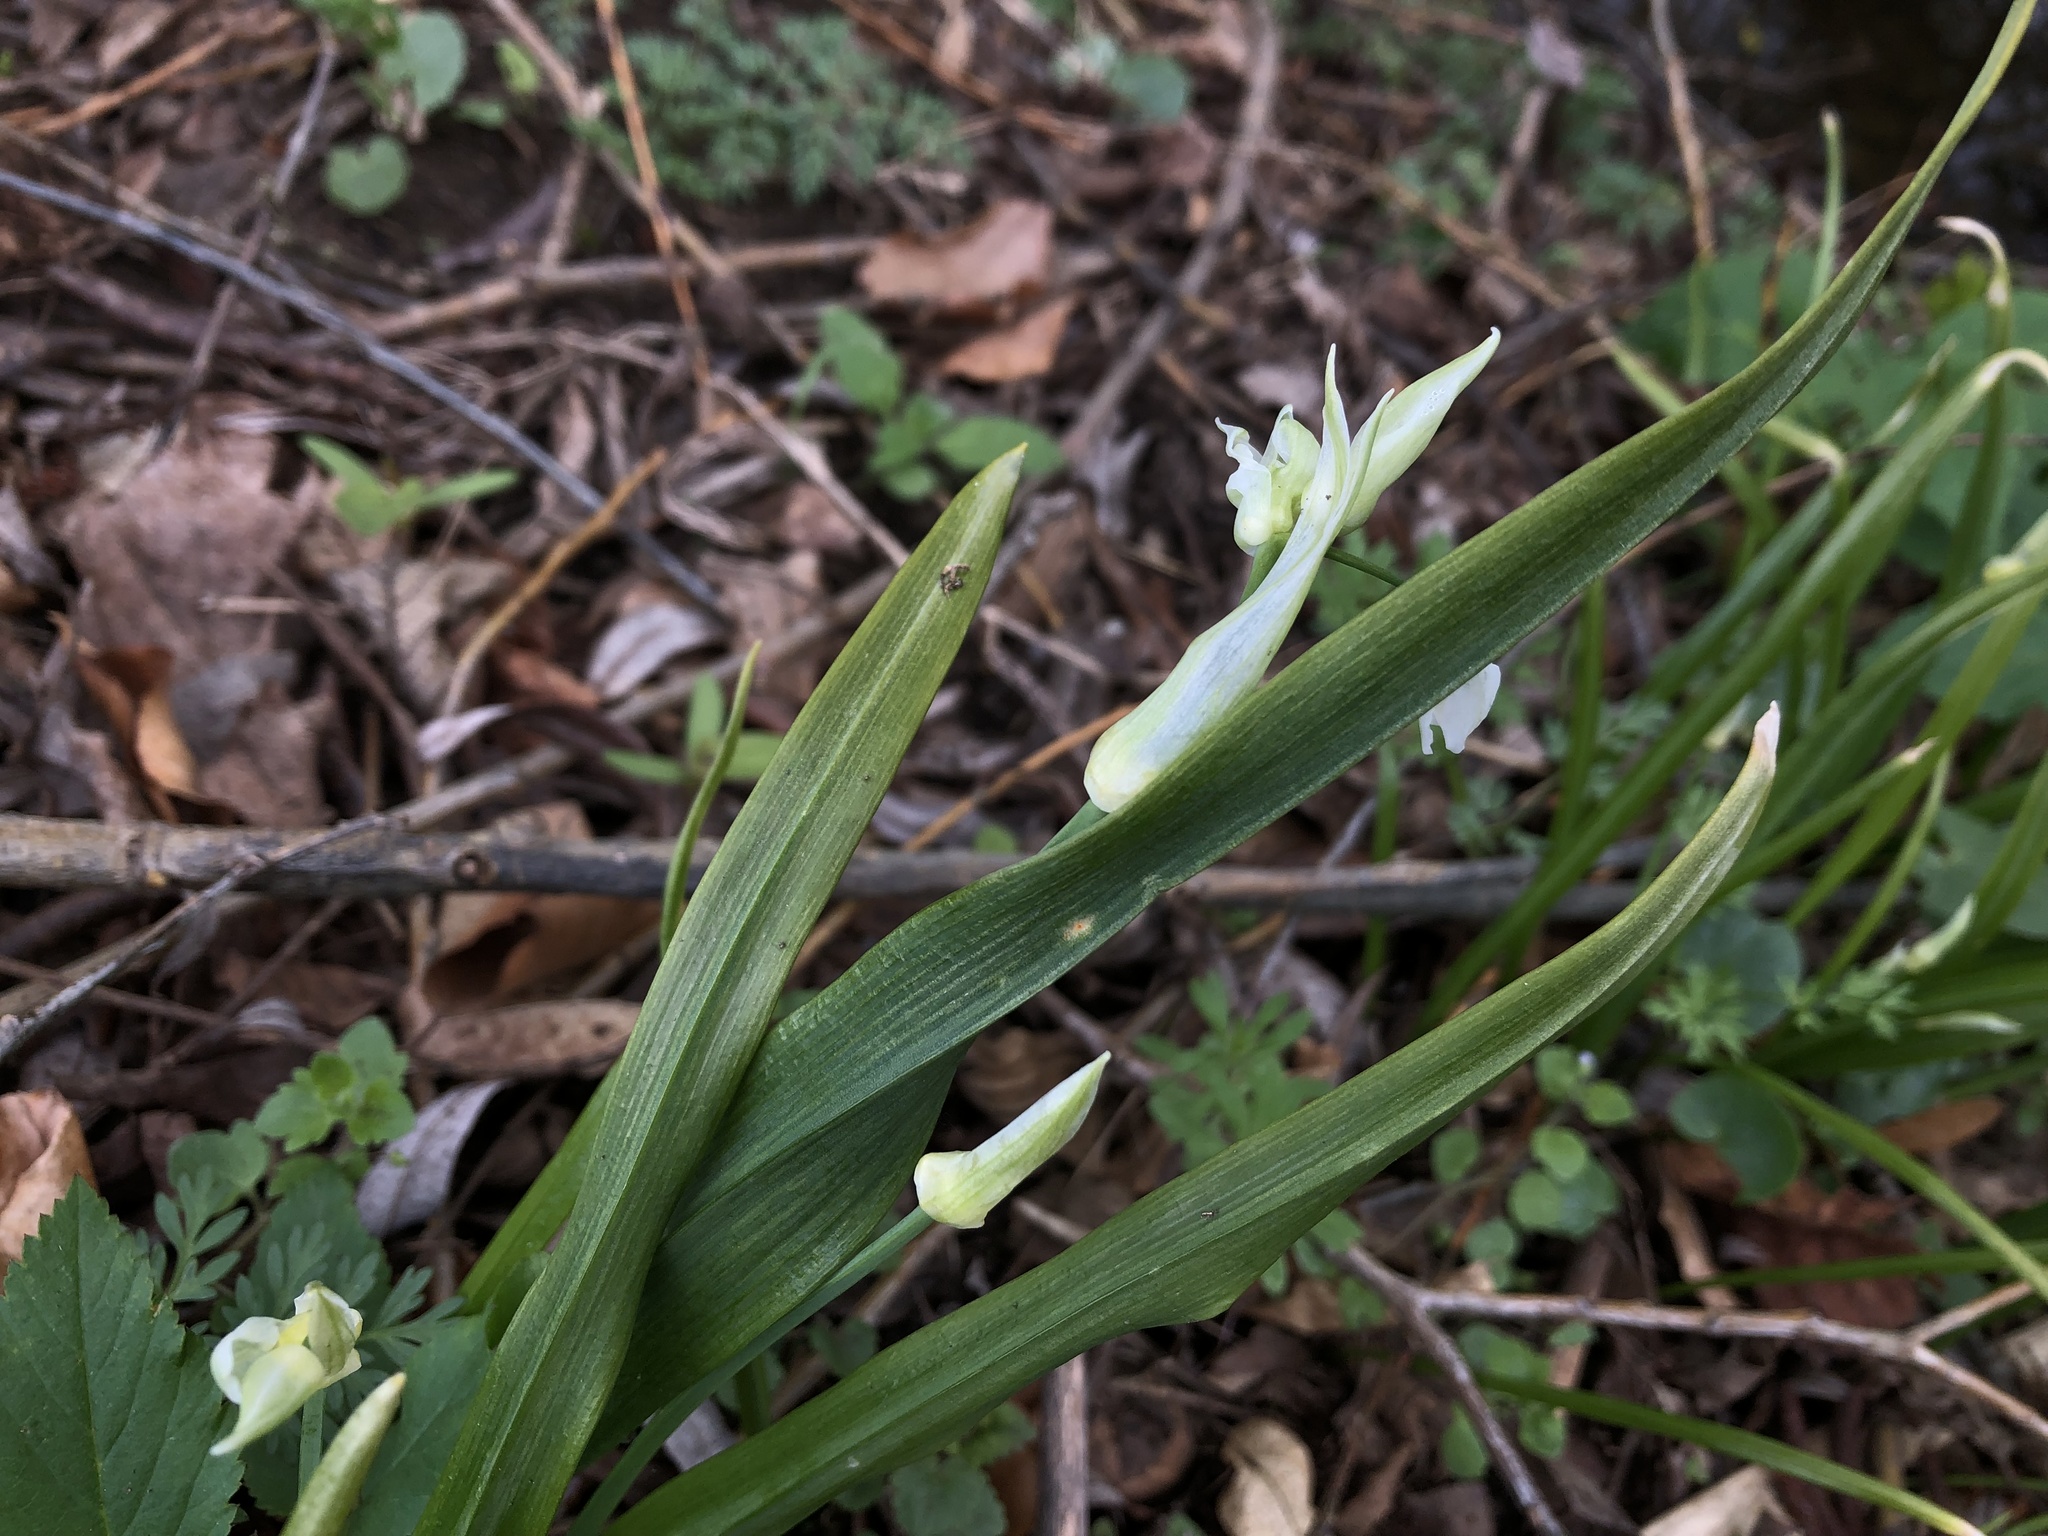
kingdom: Plantae
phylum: Tracheophyta
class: Liliopsida
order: Asparagales
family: Amaryllidaceae
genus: Allium
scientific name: Allium paradoxum
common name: Few-flowered garlic
